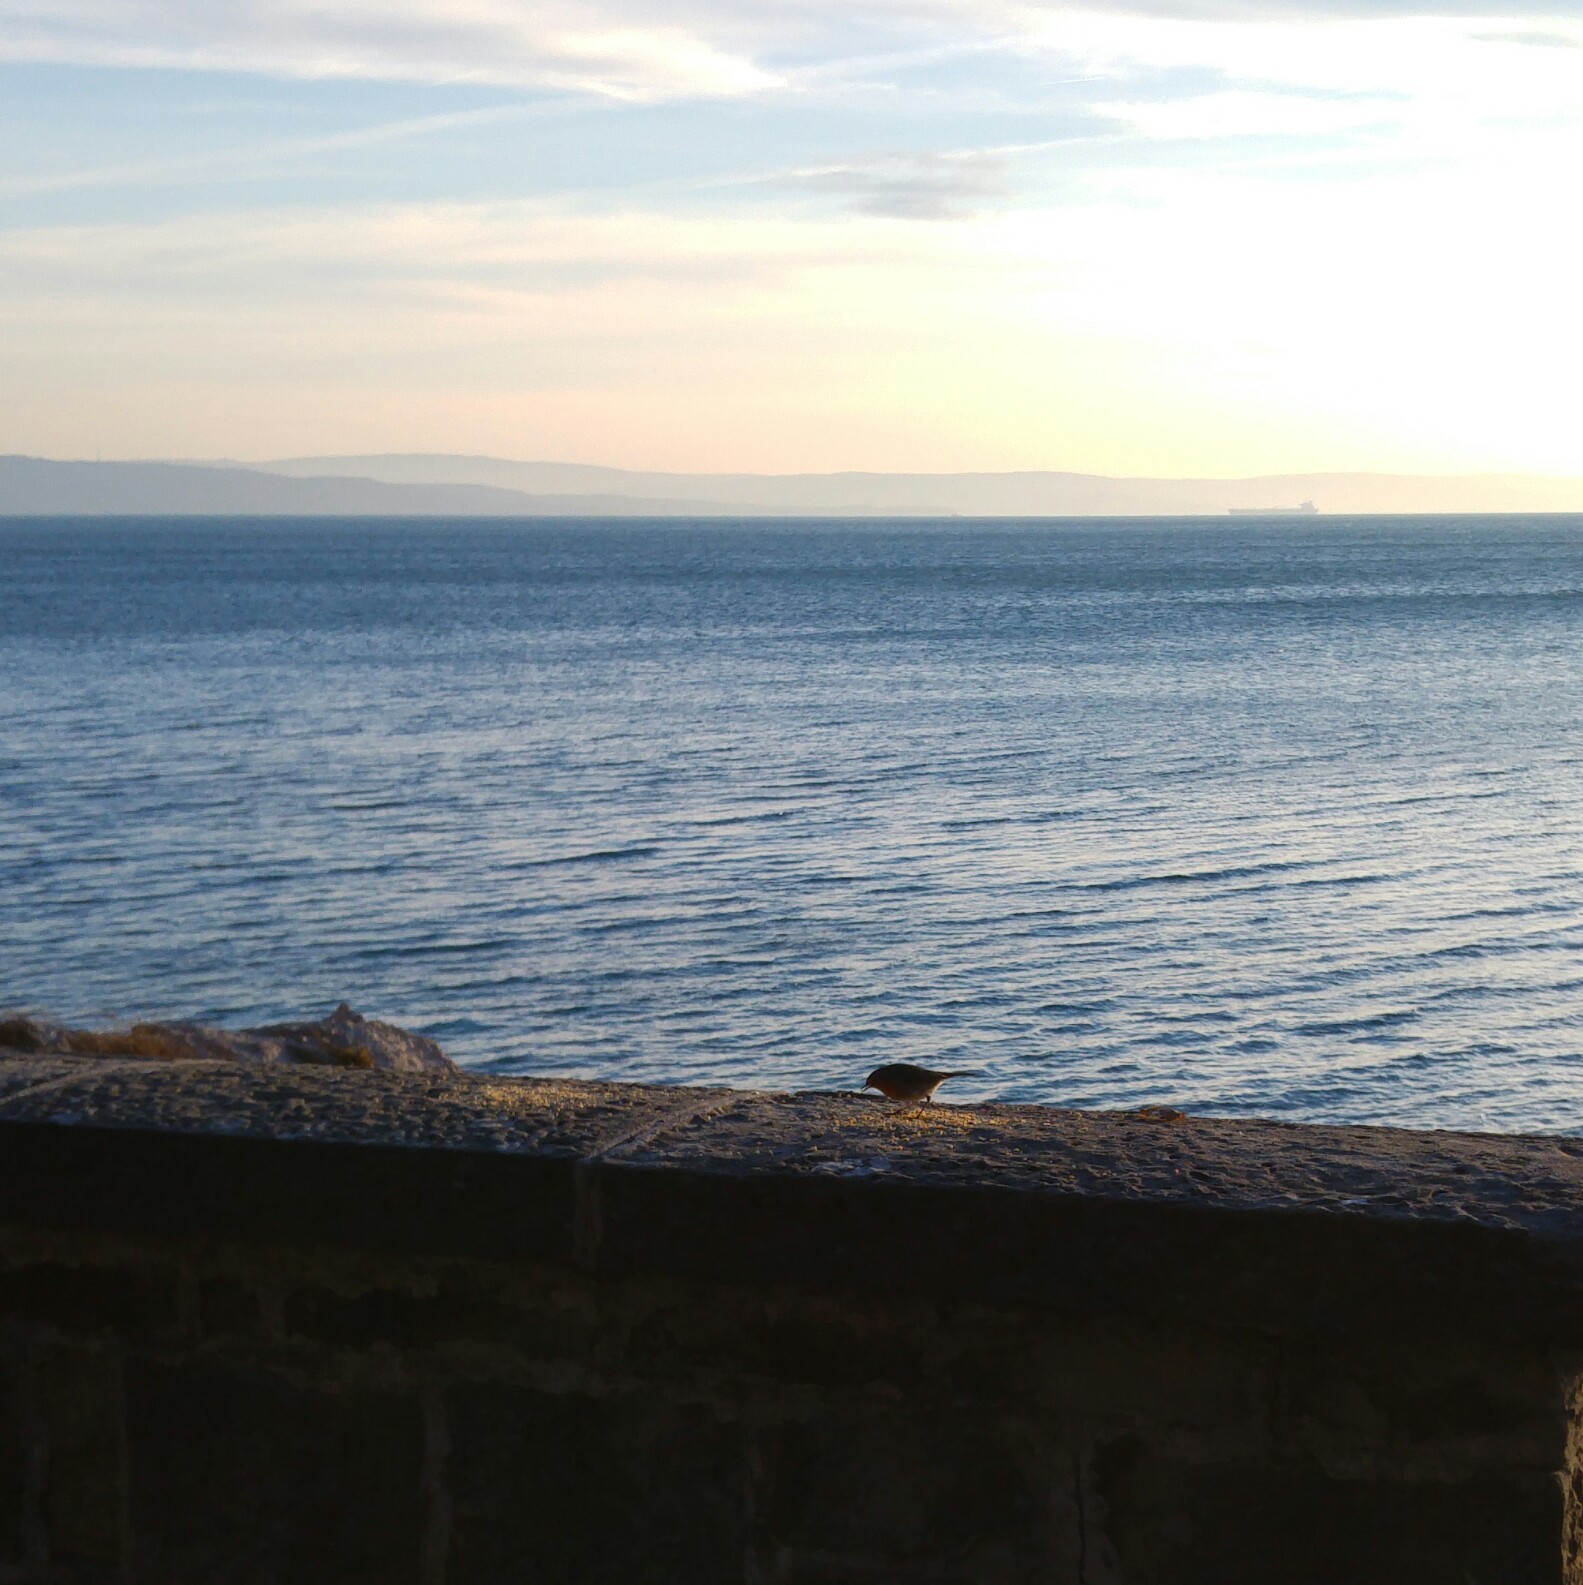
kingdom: Animalia
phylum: Chordata
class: Aves
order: Passeriformes
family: Muscicapidae
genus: Erithacus
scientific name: Erithacus rubecula
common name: European robin
